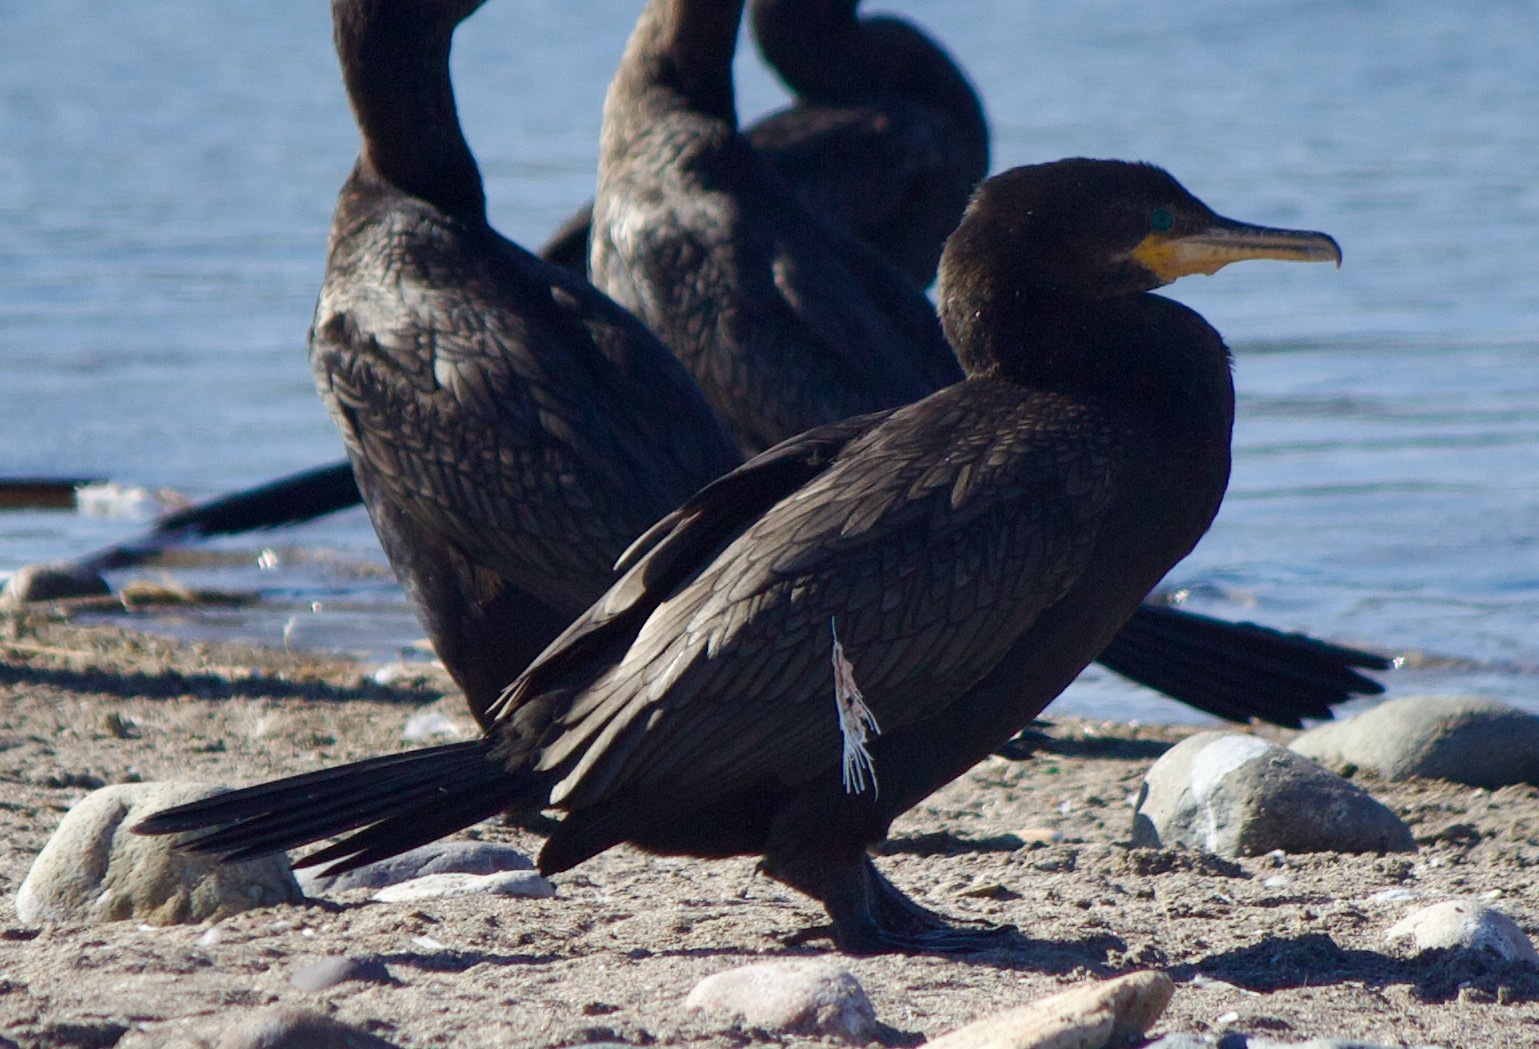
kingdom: Animalia
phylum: Chordata
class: Aves
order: Suliformes
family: Phalacrocoracidae
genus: Phalacrocorax
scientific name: Phalacrocorax brasilianus
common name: Neotropic cormorant
